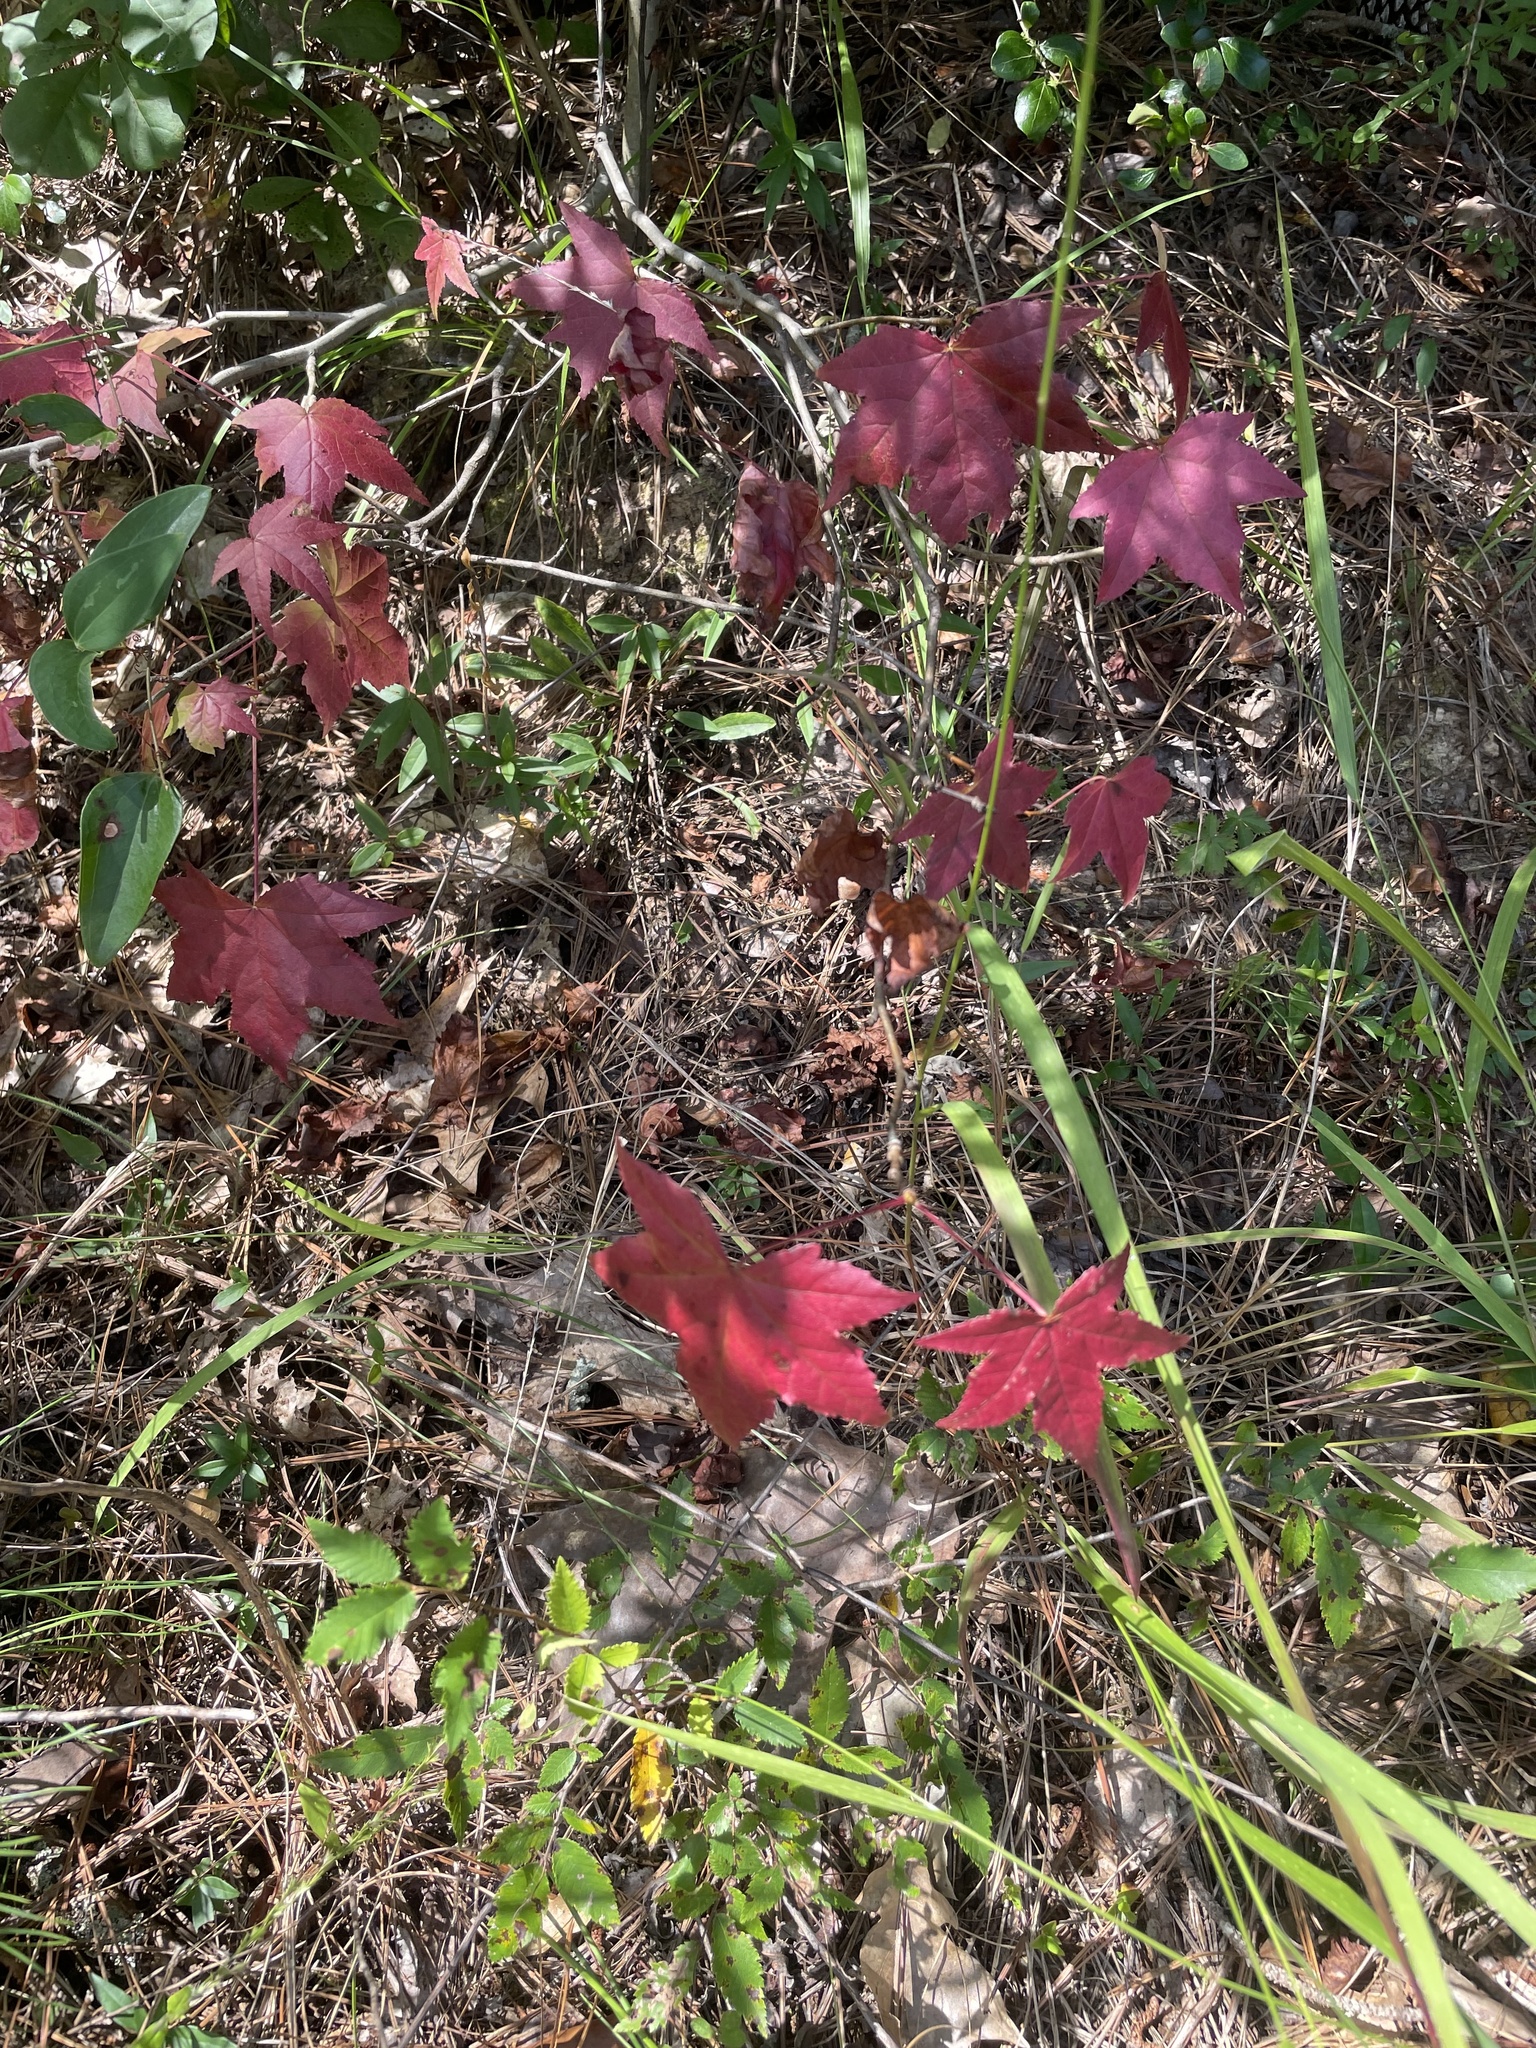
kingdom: Plantae
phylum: Tracheophyta
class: Magnoliopsida
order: Saxifragales
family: Altingiaceae
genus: Liquidambar
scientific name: Liquidambar styraciflua
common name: Sweet gum
